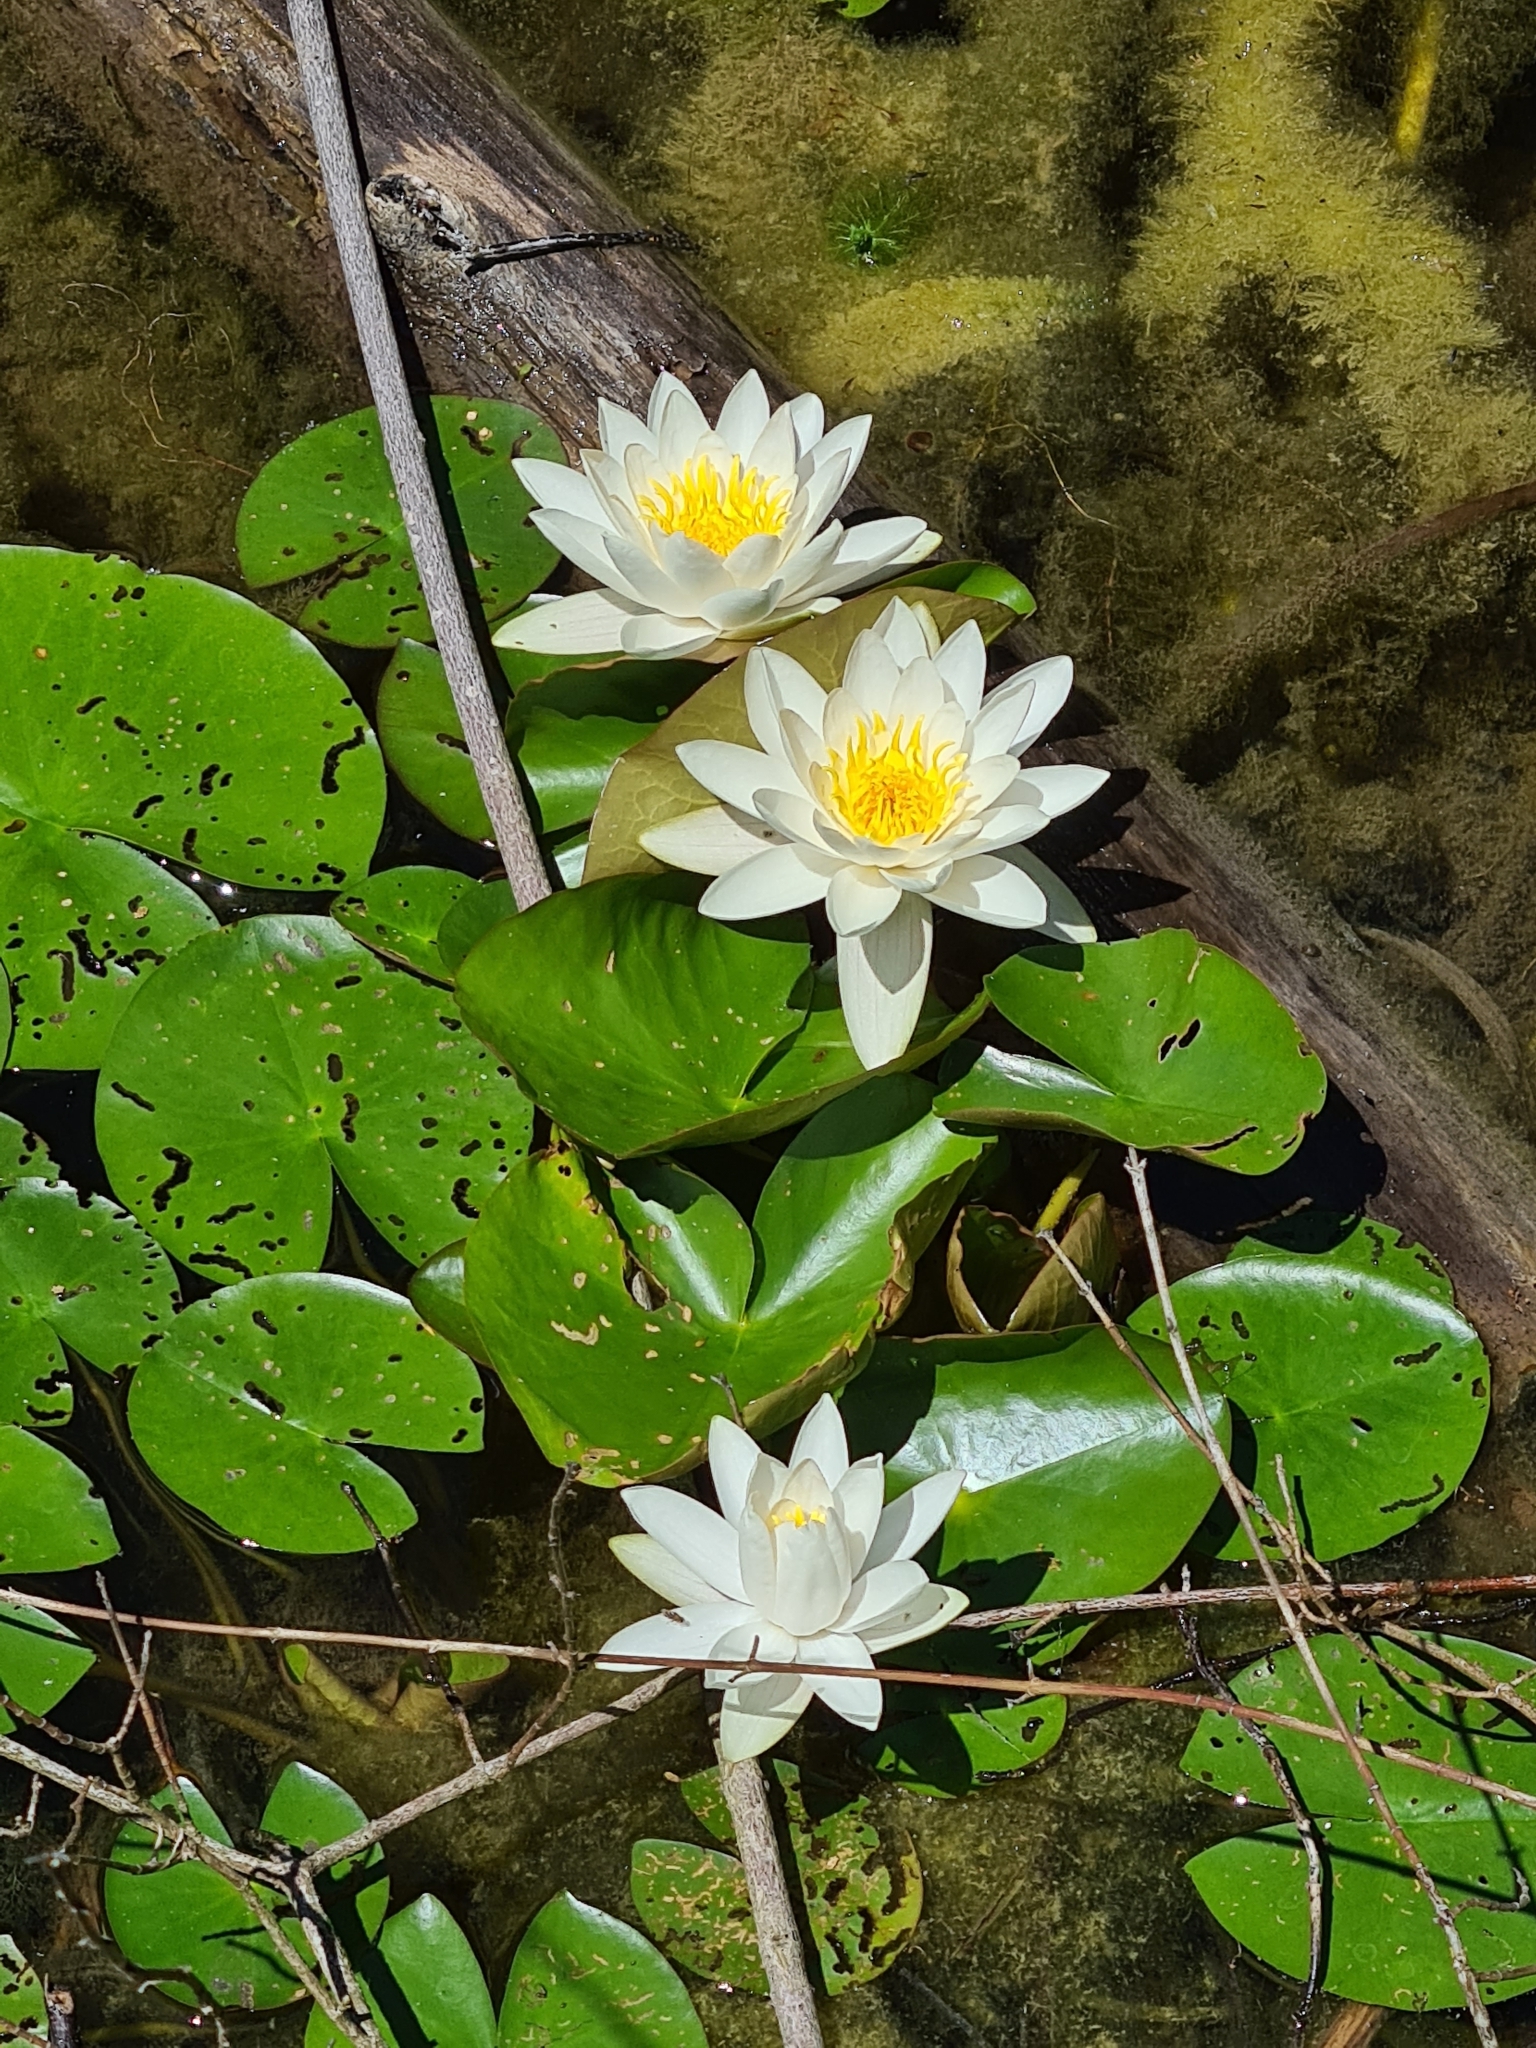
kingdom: Plantae
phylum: Tracheophyta
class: Magnoliopsida
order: Nymphaeales
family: Nymphaeaceae
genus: Nymphaea
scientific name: Nymphaea alba
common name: White water-lily
